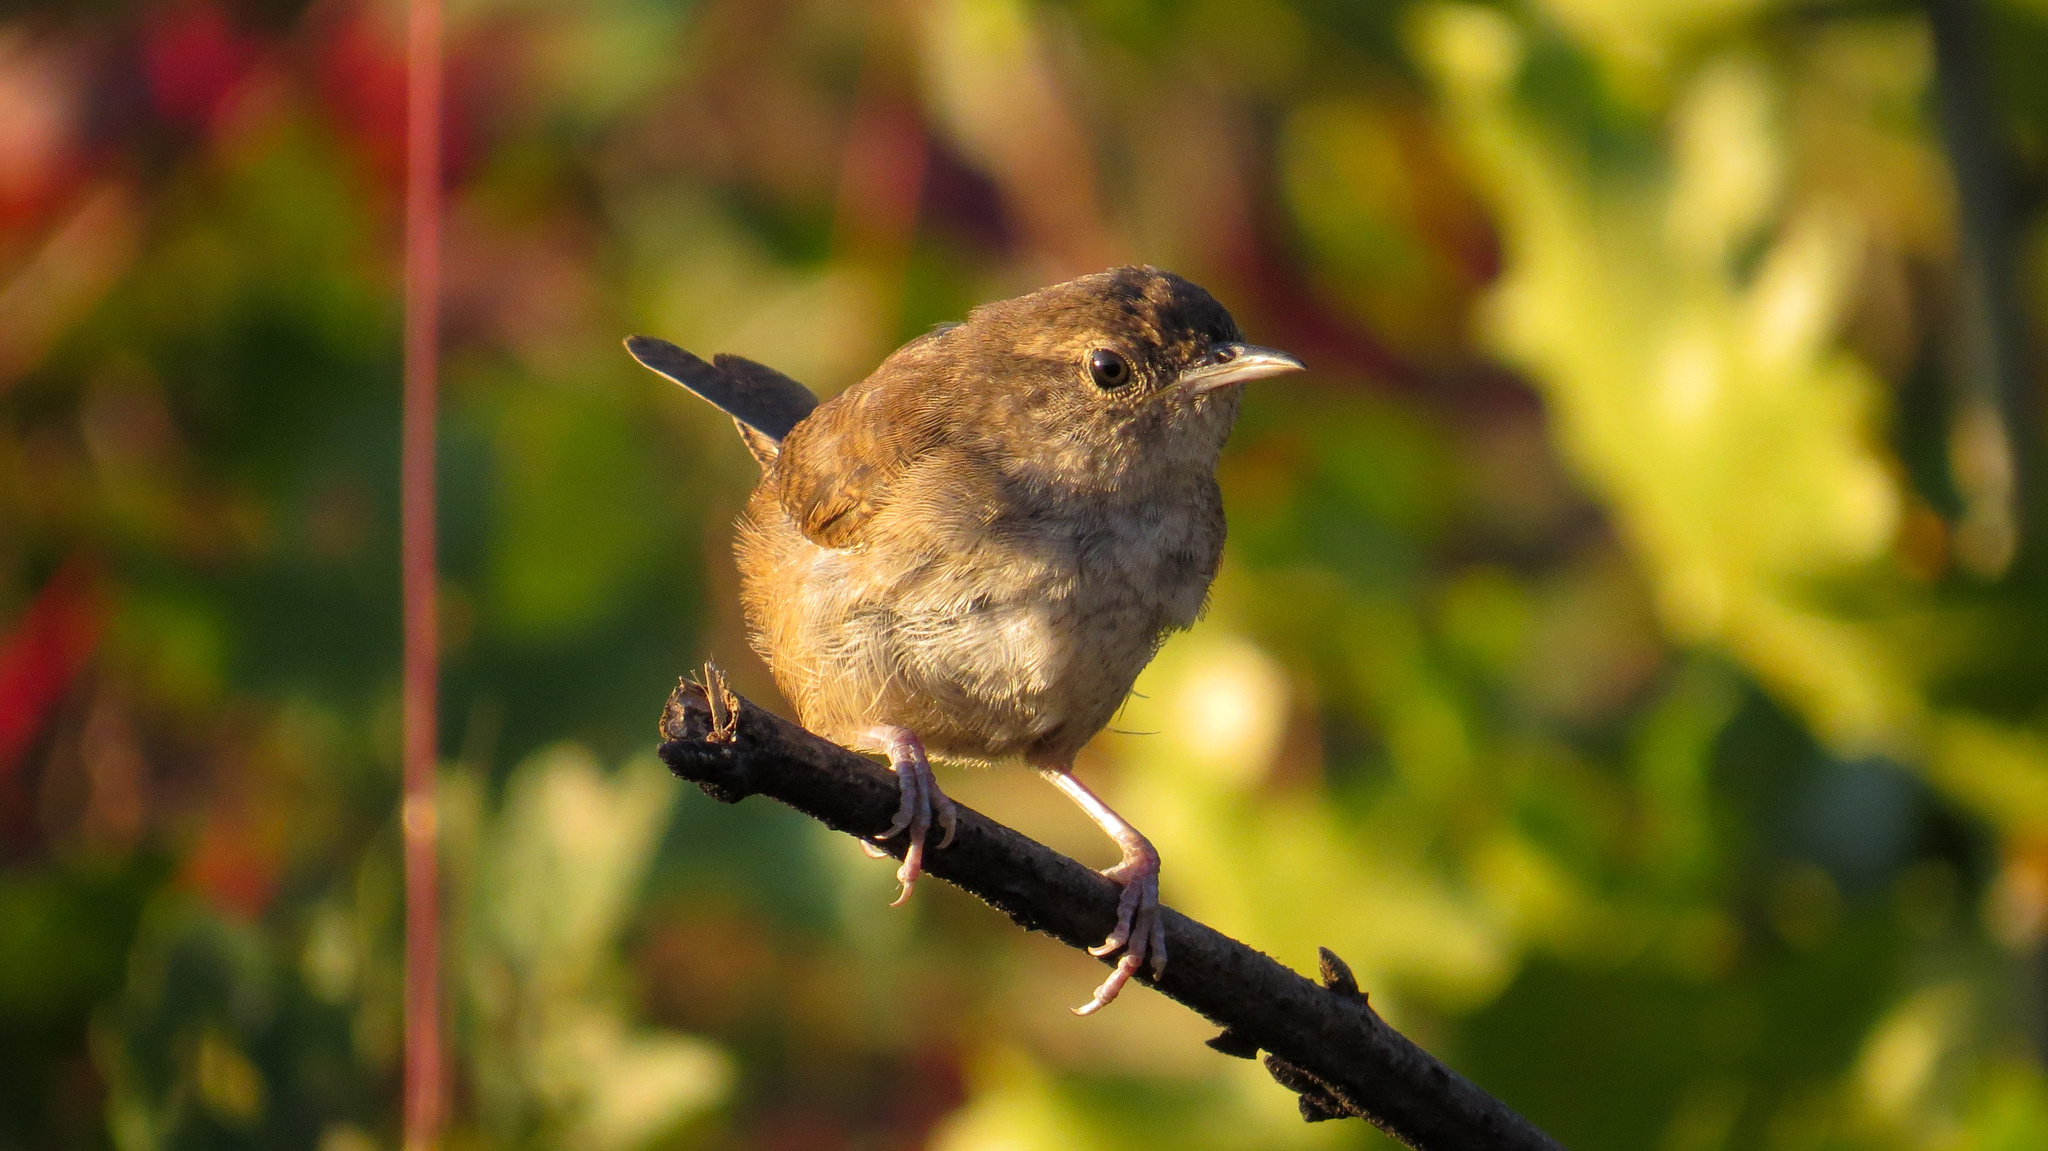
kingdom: Animalia
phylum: Chordata
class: Aves
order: Passeriformes
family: Troglodytidae
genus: Troglodytes
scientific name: Troglodytes aedon
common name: House wren
